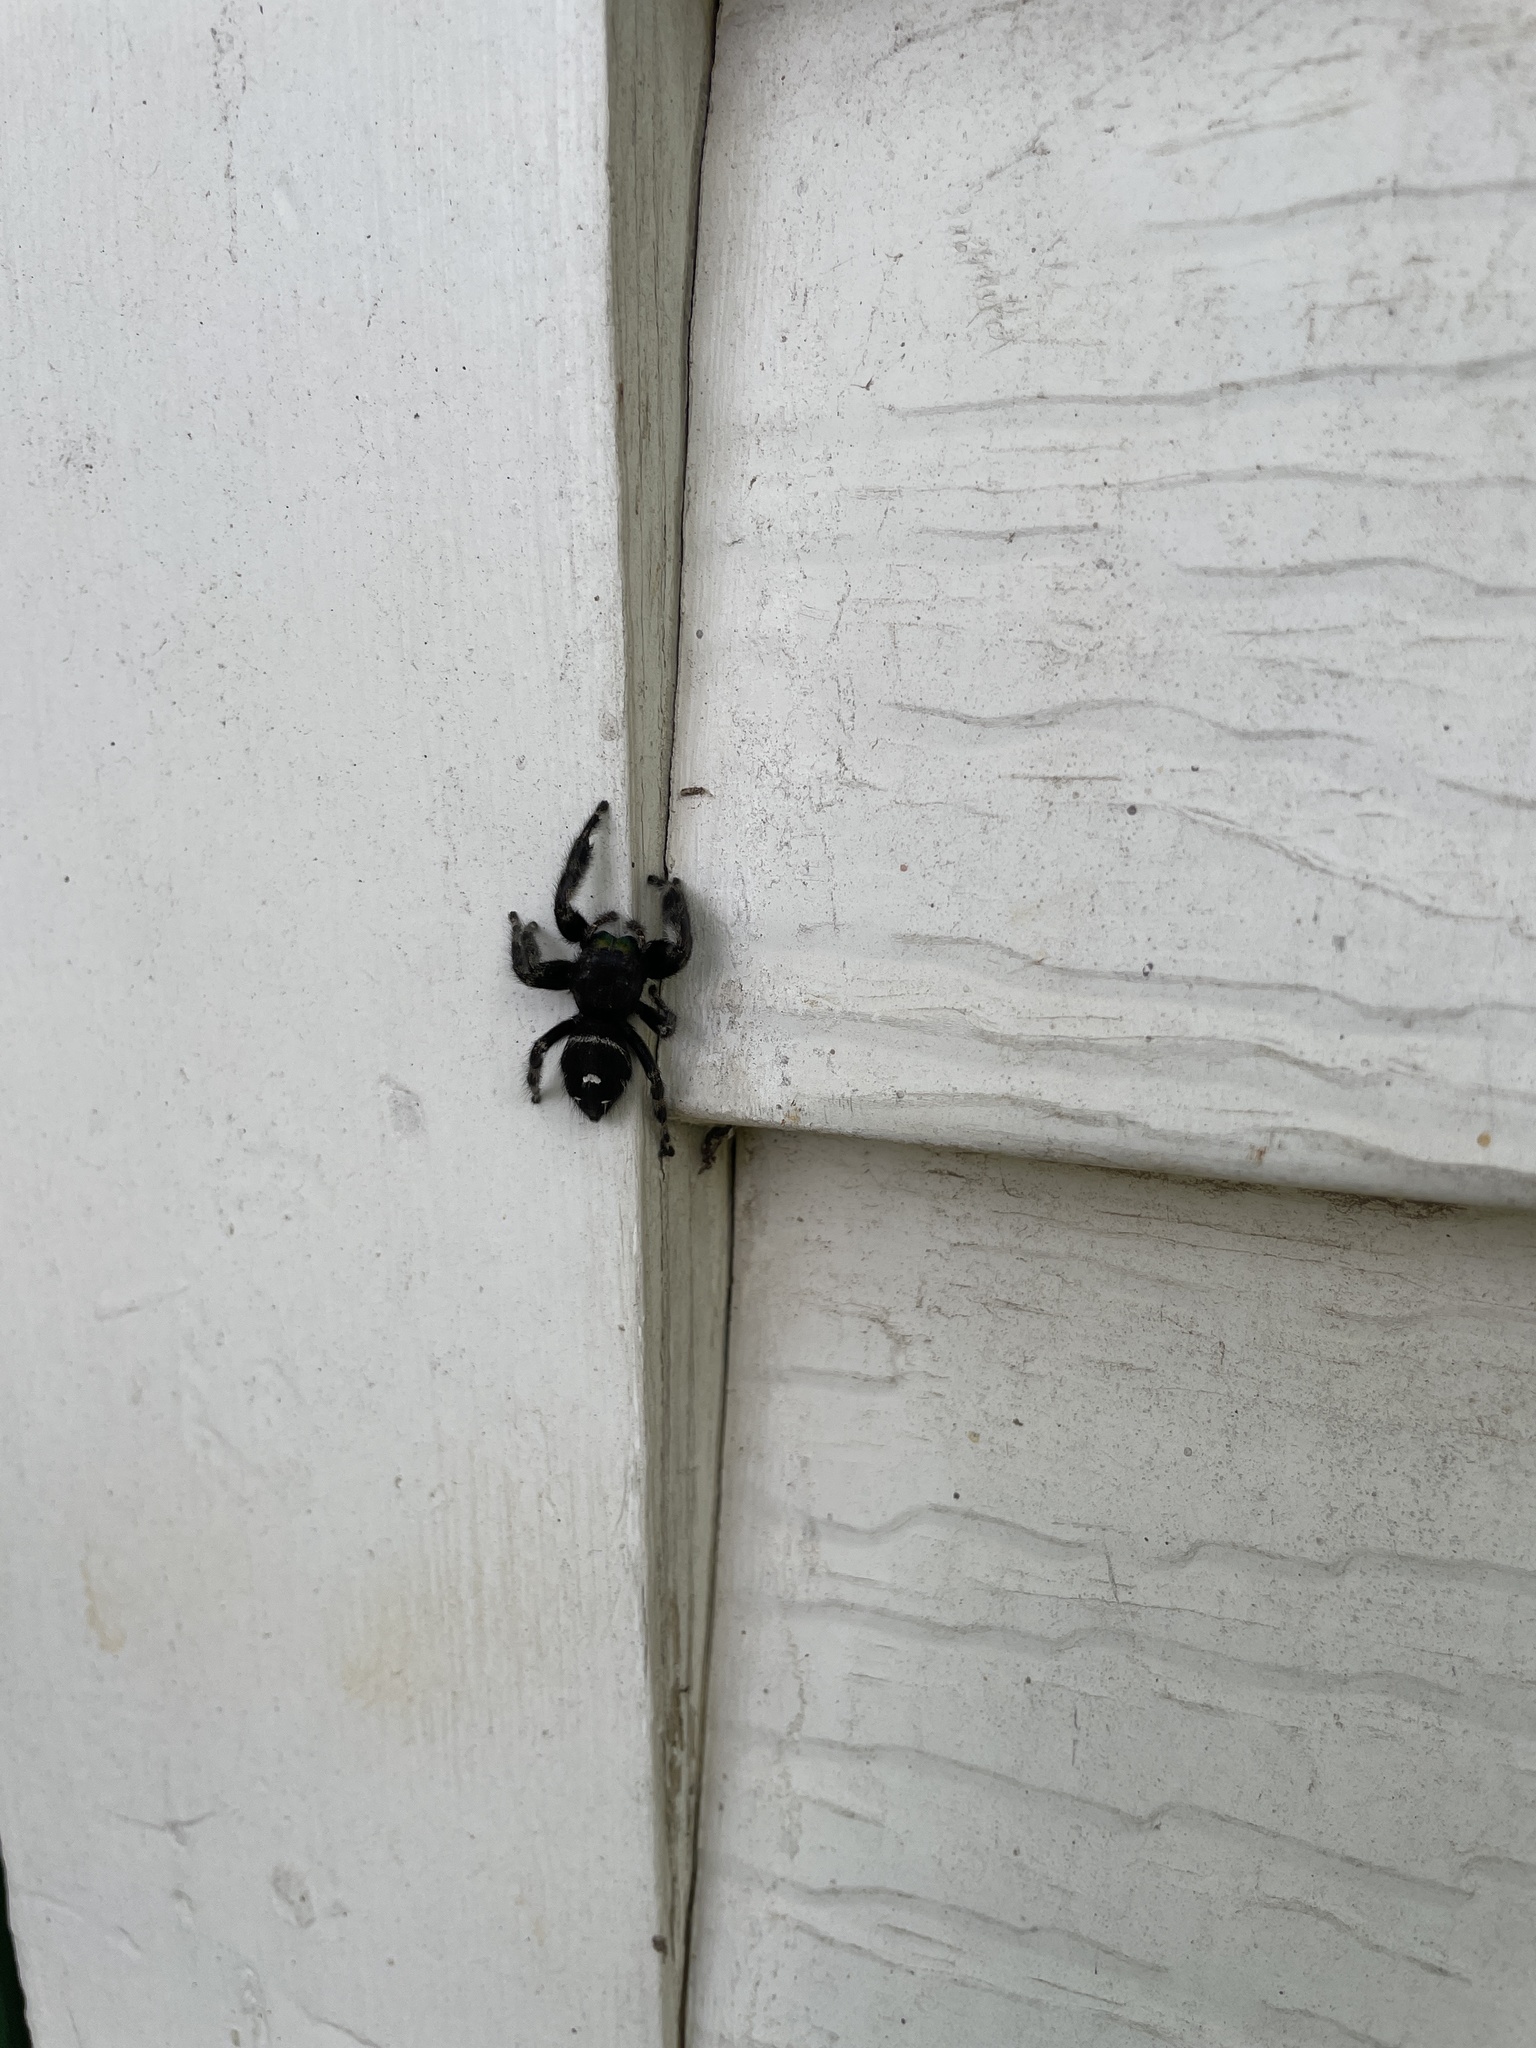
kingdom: Animalia
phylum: Arthropoda
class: Arachnida
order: Araneae
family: Salticidae
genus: Phidippus
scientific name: Phidippus audax
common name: Bold jumper
